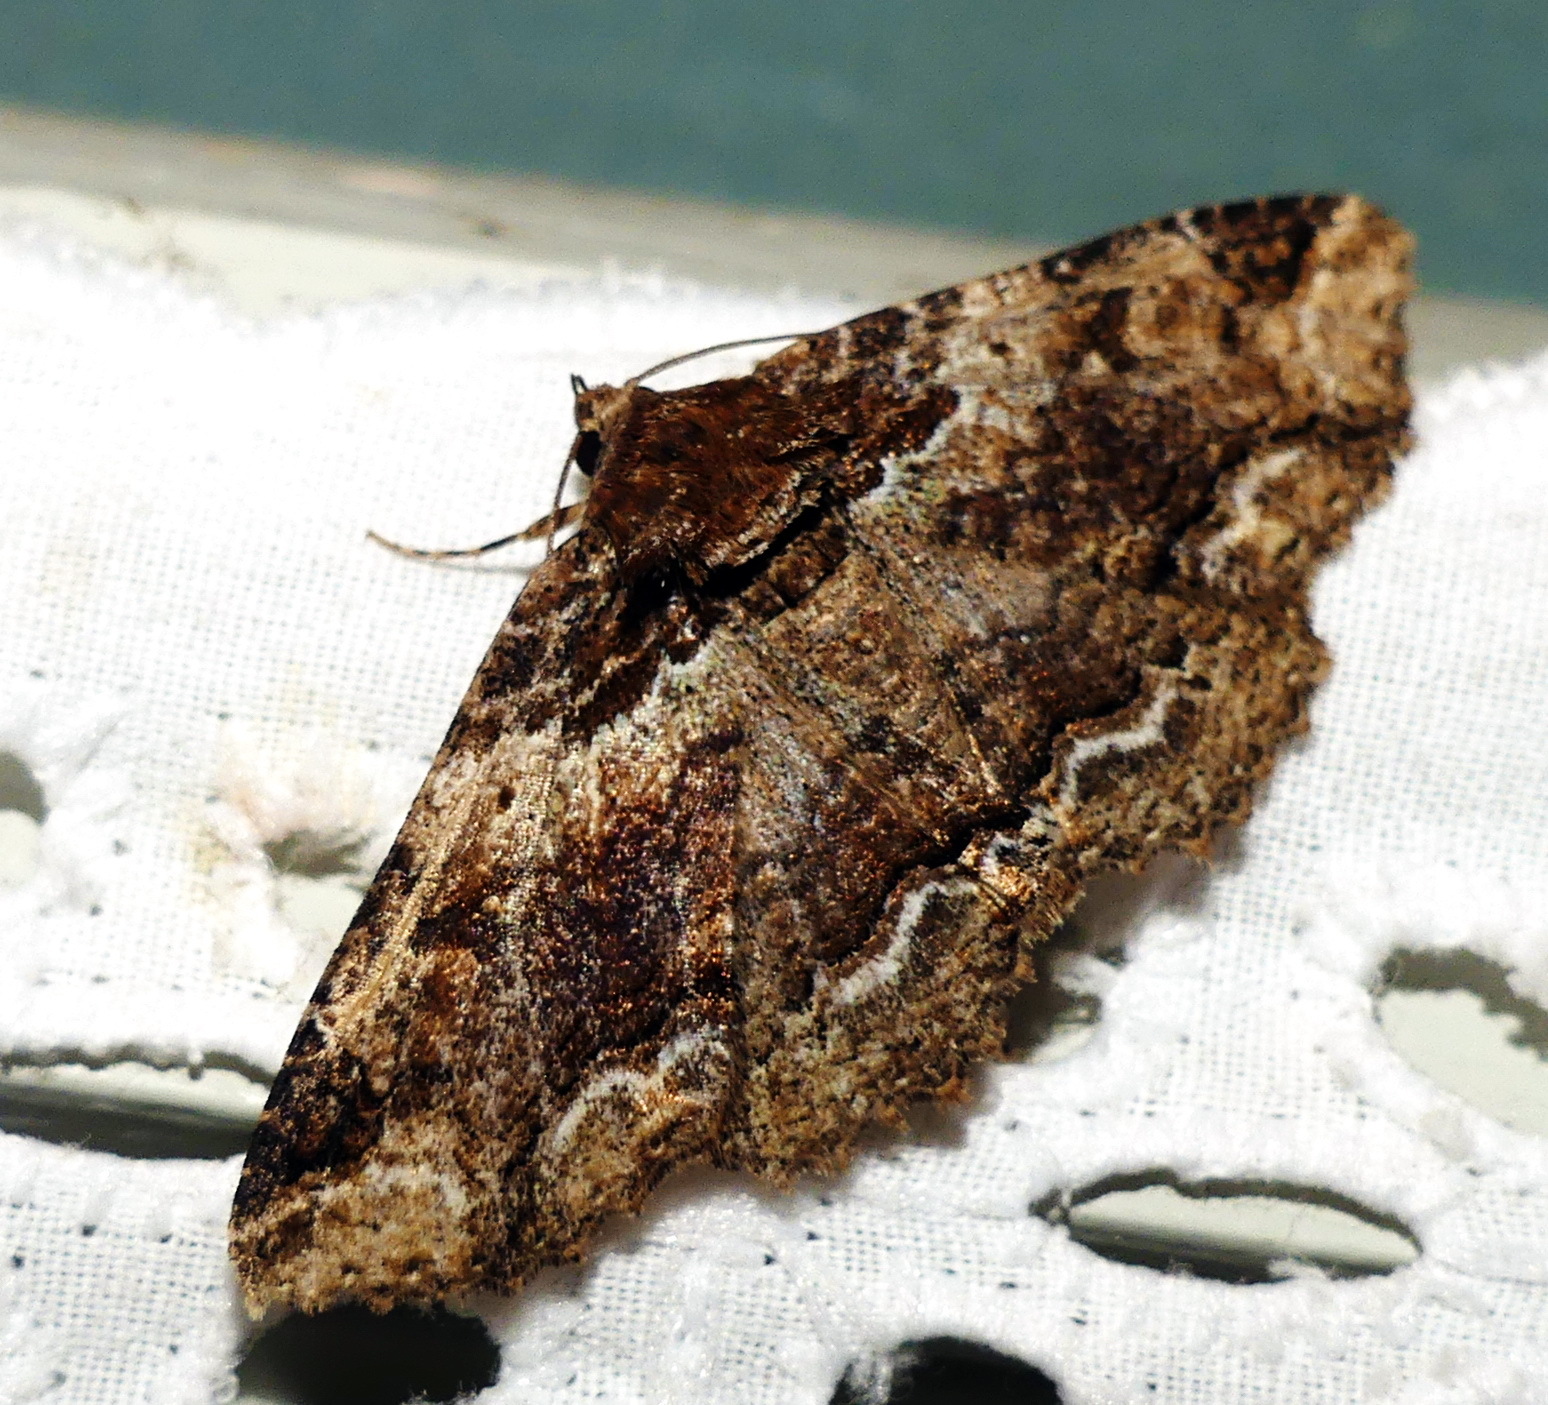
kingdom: Animalia
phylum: Arthropoda
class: Insecta
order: Lepidoptera
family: Erebidae
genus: Zale
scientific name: Zale minerea
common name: Colorful zale moth
